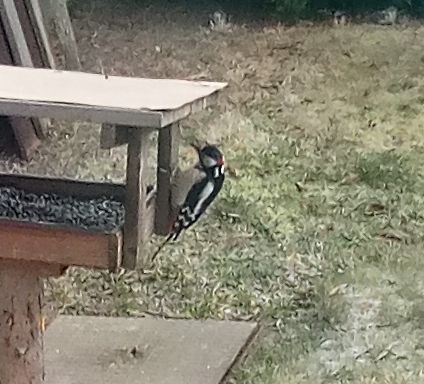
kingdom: Animalia
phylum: Chordata
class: Aves
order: Piciformes
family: Picidae
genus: Dendrocopos
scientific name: Dendrocopos major
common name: Great spotted woodpecker
